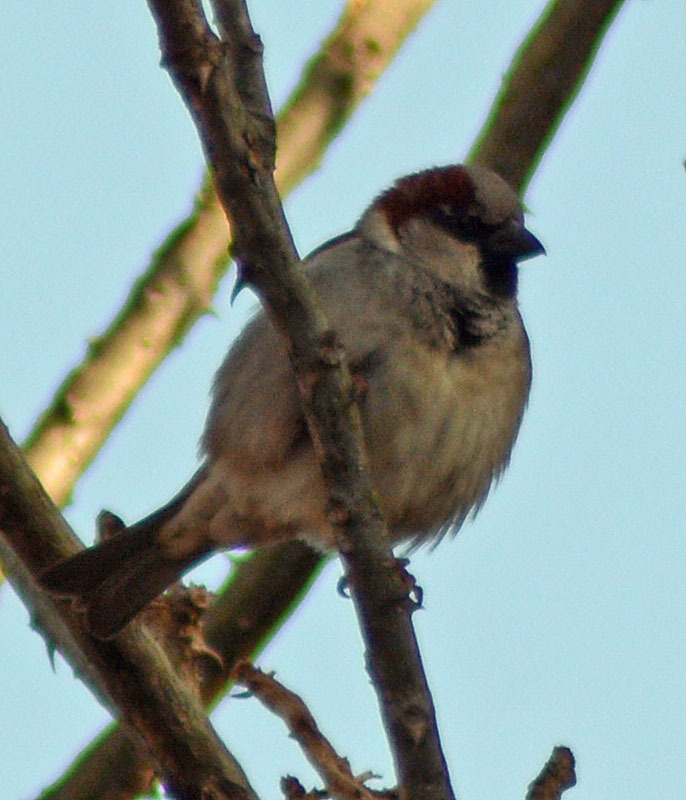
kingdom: Animalia
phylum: Chordata
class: Aves
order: Passeriformes
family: Passeridae
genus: Passer
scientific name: Passer domesticus
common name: House sparrow
